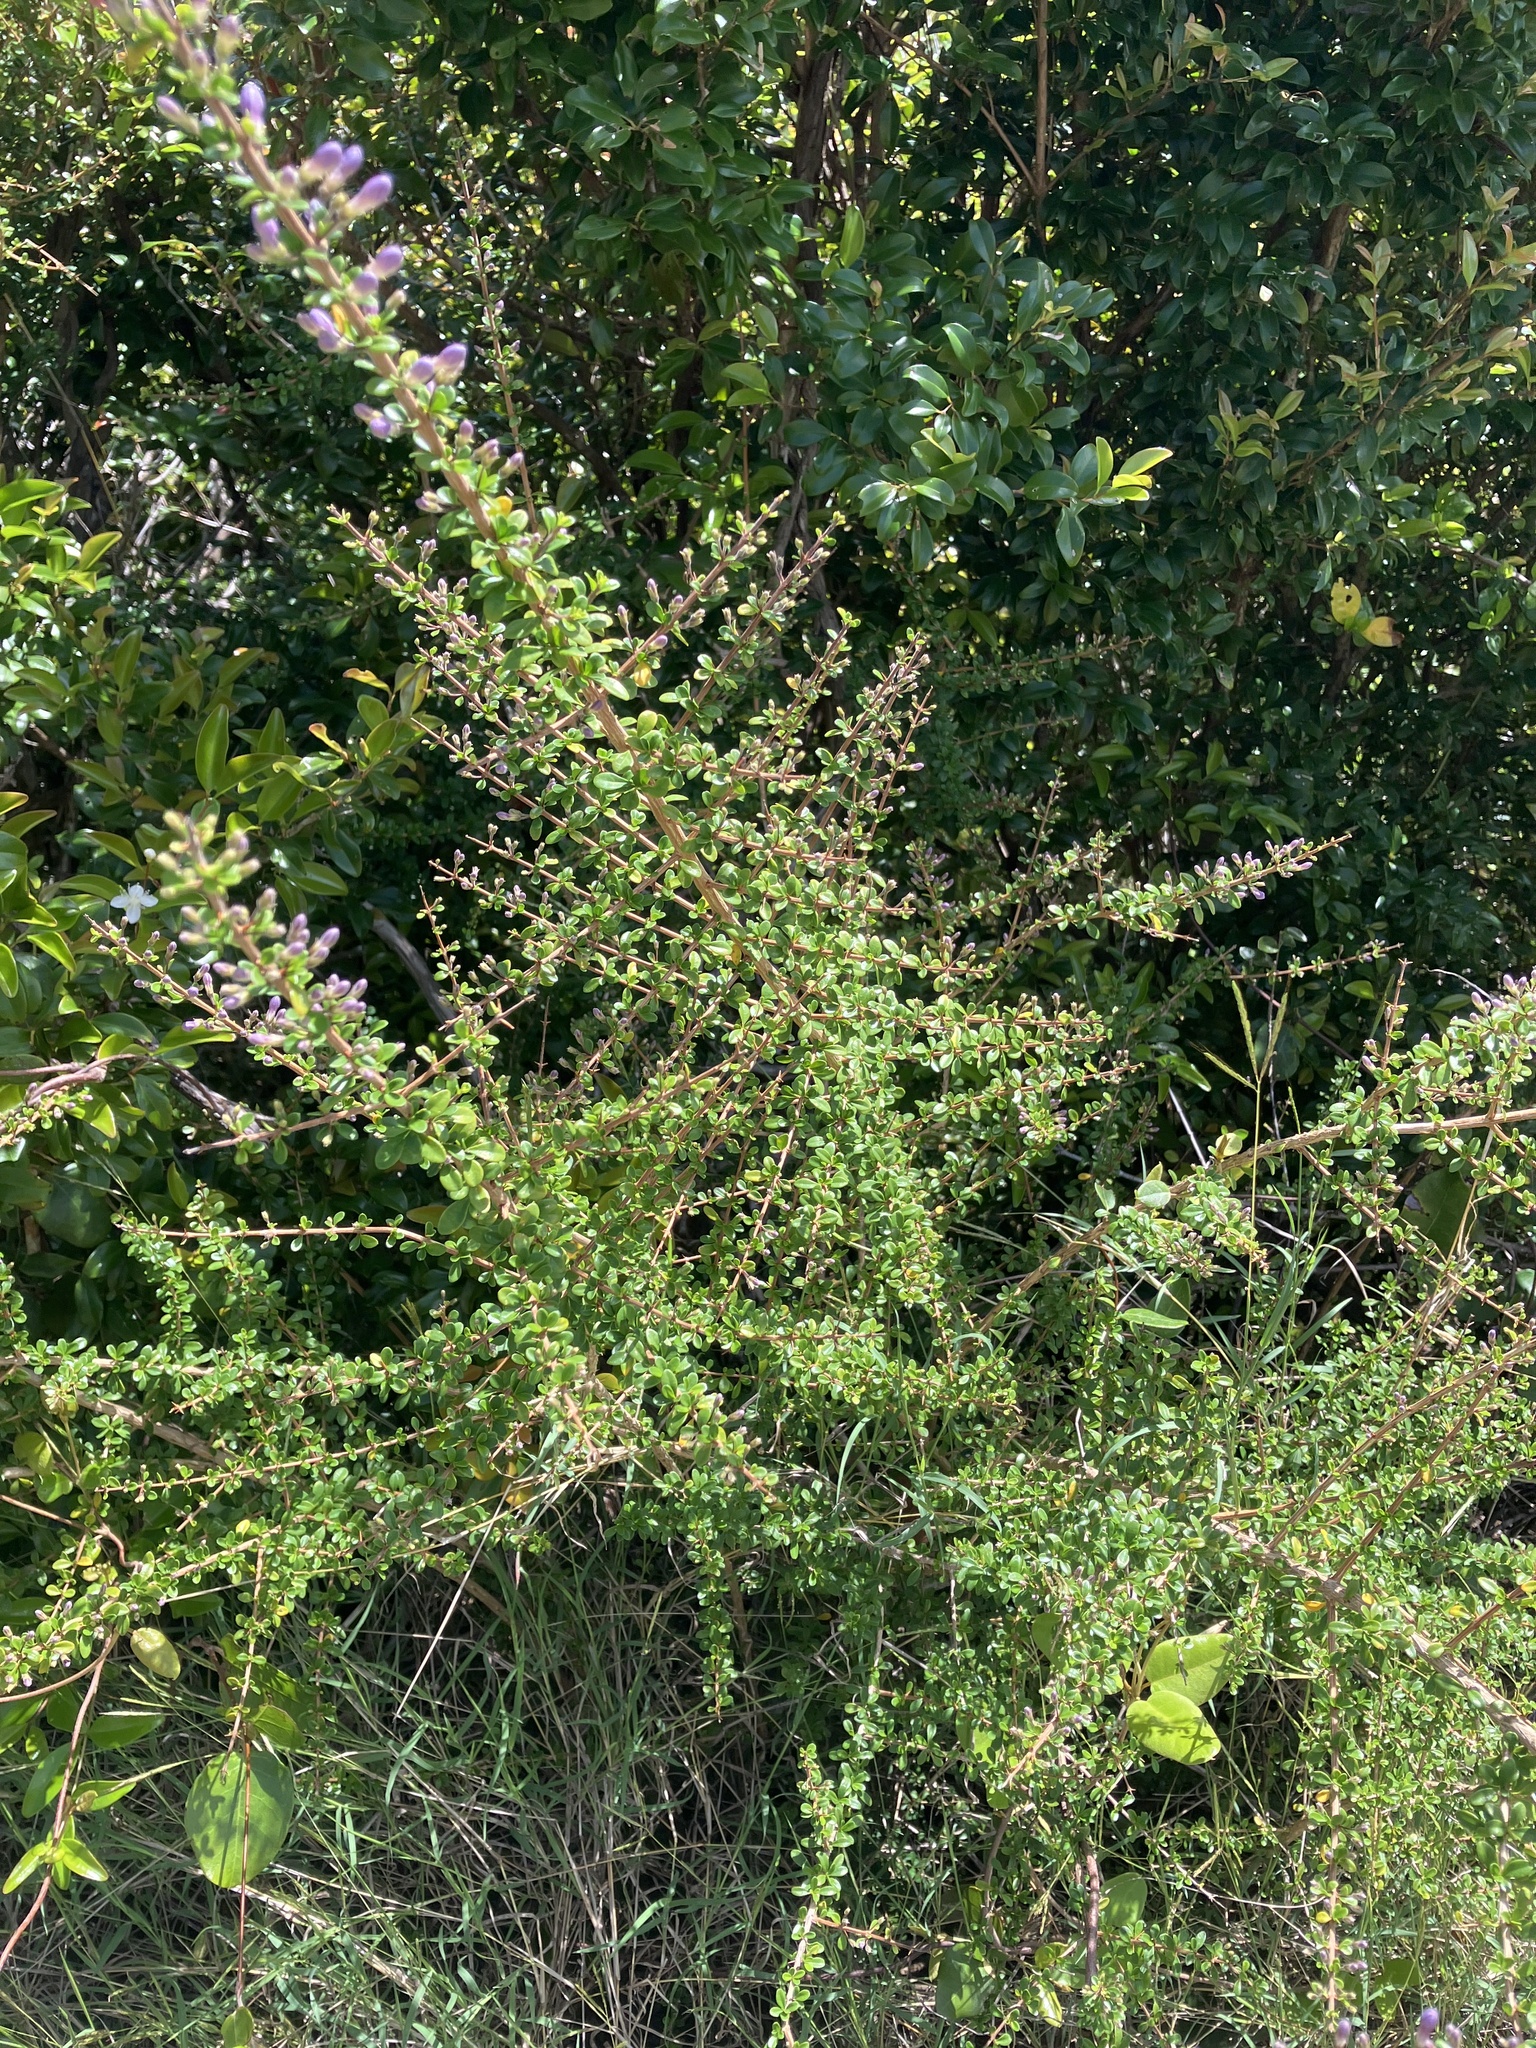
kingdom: Plantae
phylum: Tracheophyta
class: Magnoliopsida
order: Lamiales
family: Acanthaceae
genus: Oplonia
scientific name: Oplonia spinosa
